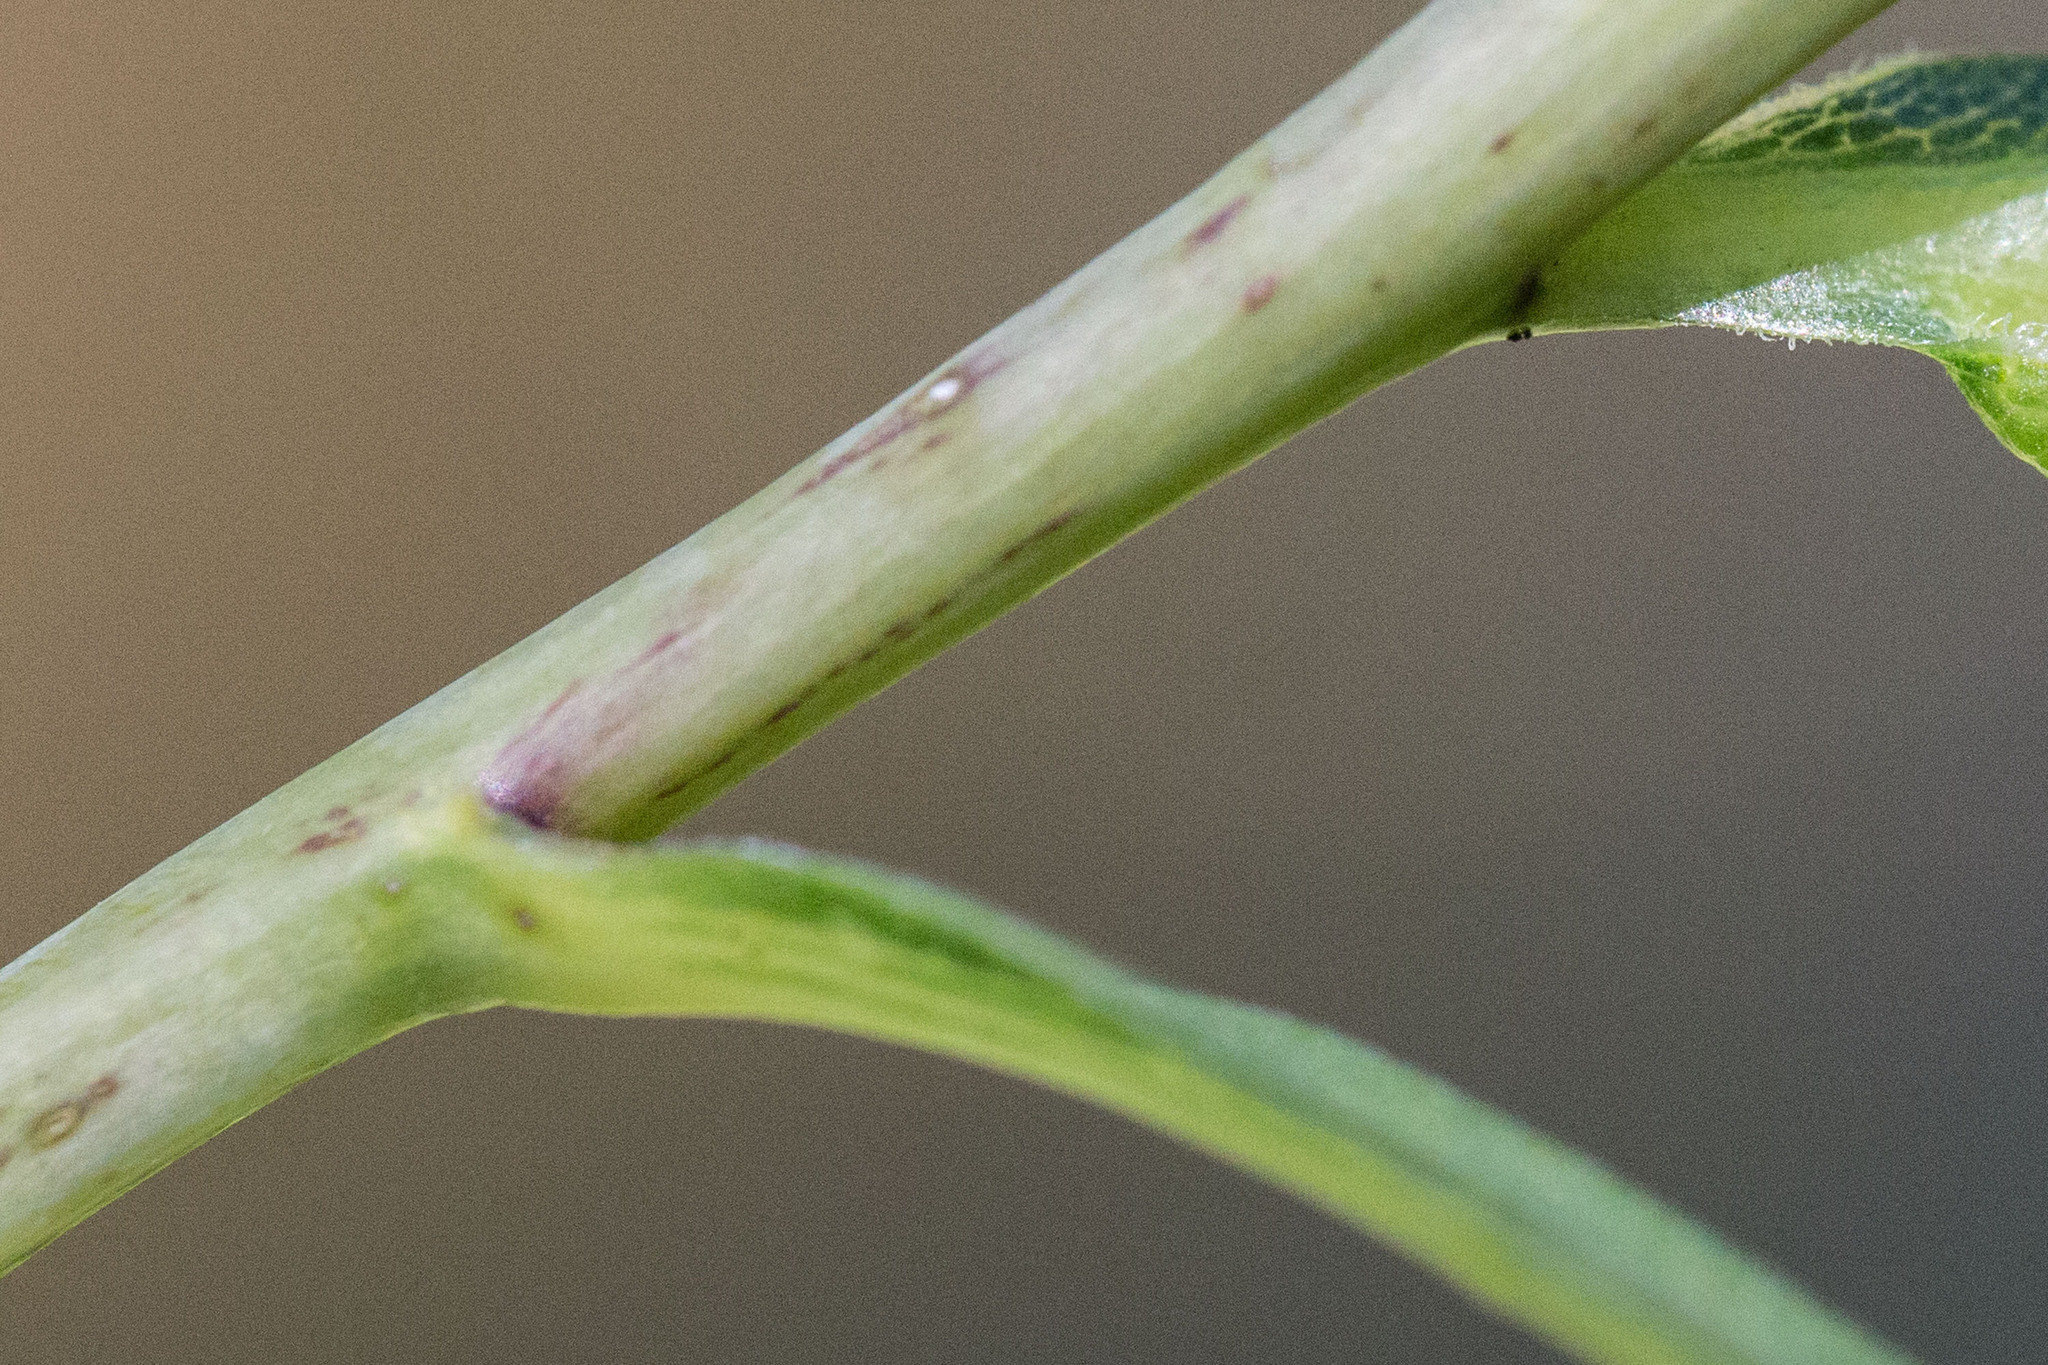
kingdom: Plantae
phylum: Tracheophyta
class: Magnoliopsida
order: Asterales
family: Asteraceae
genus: Solidago
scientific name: Solidago gigantea
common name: Giant goldenrod
